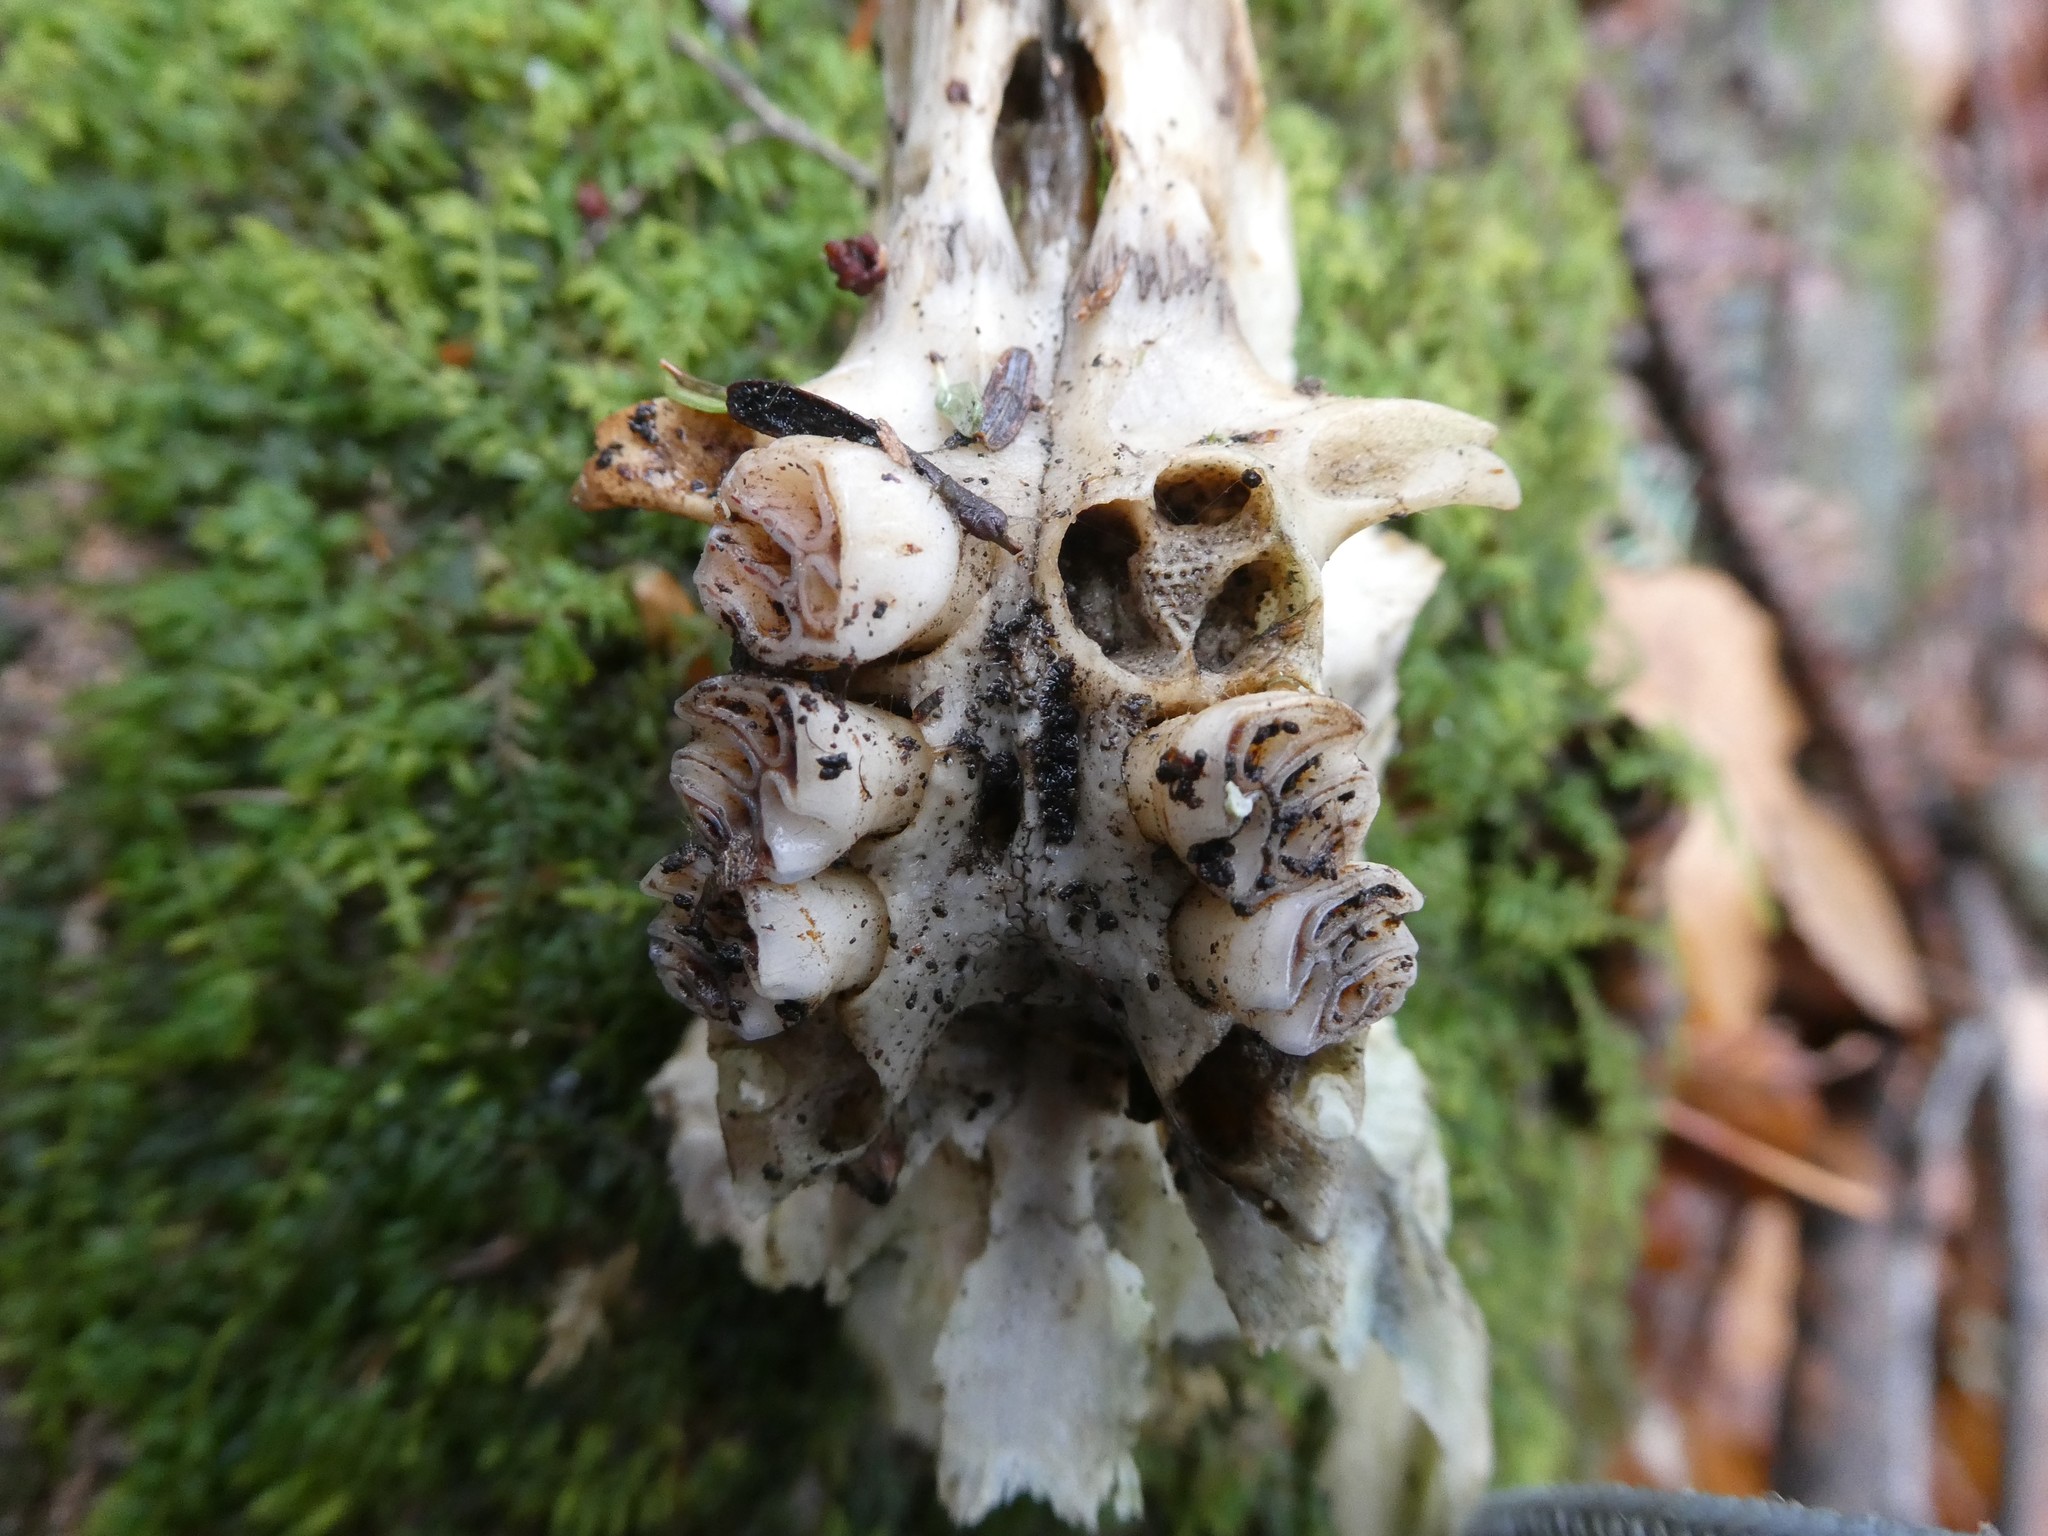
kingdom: Animalia
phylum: Chordata
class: Mammalia
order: Rodentia
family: Erethizontidae
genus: Erethizon
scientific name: Erethizon dorsatus
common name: North american porcupine
